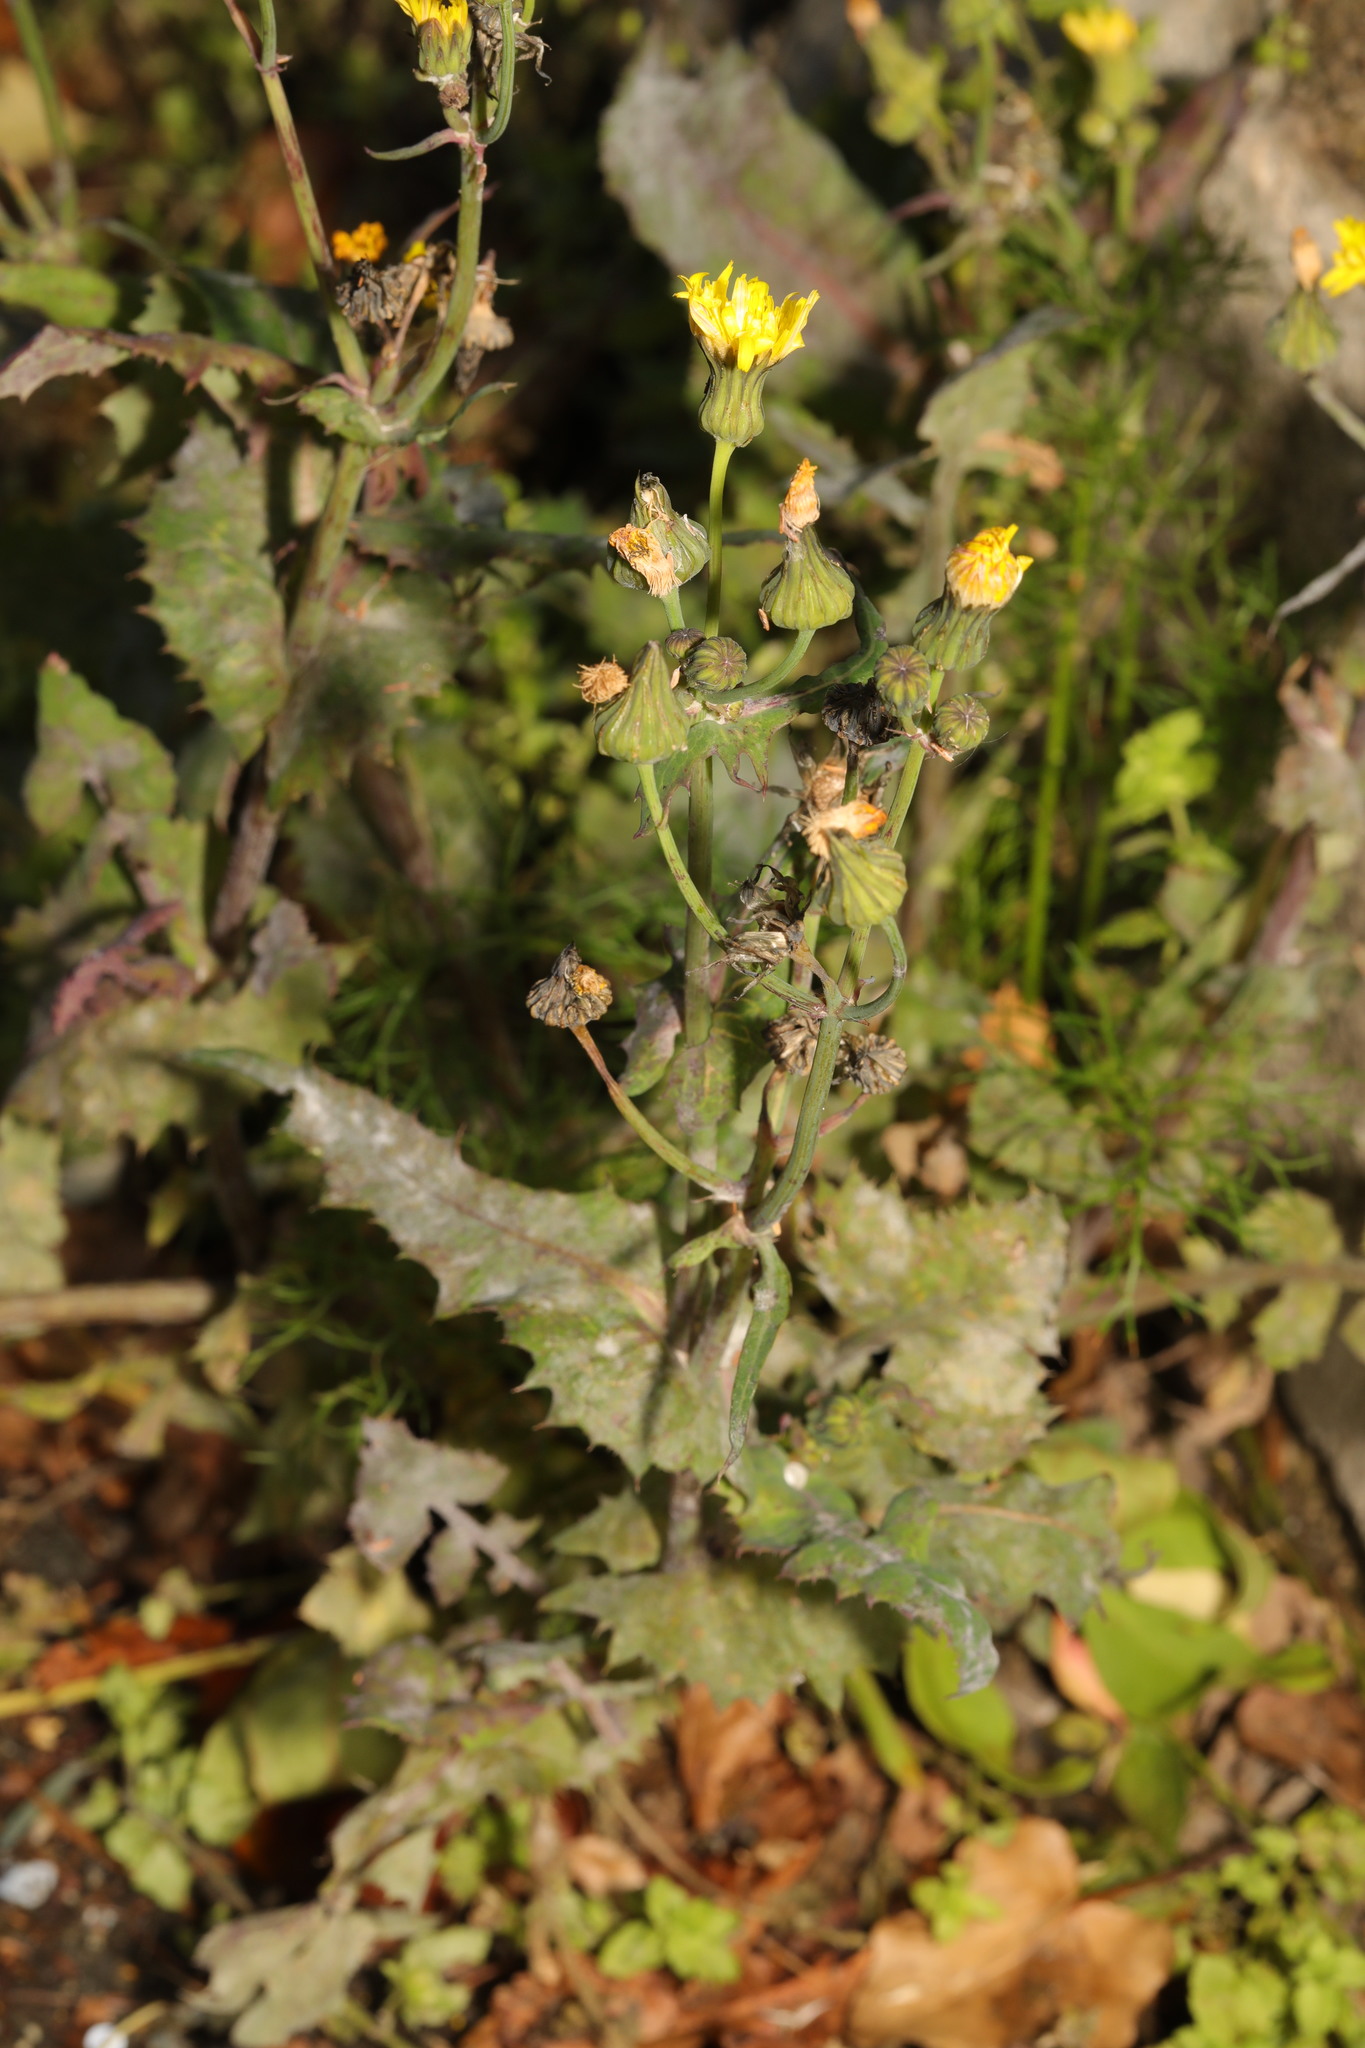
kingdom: Plantae
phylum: Tracheophyta
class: Magnoliopsida
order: Asterales
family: Asteraceae
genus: Sonchus
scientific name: Sonchus oleraceus
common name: Common sowthistle
